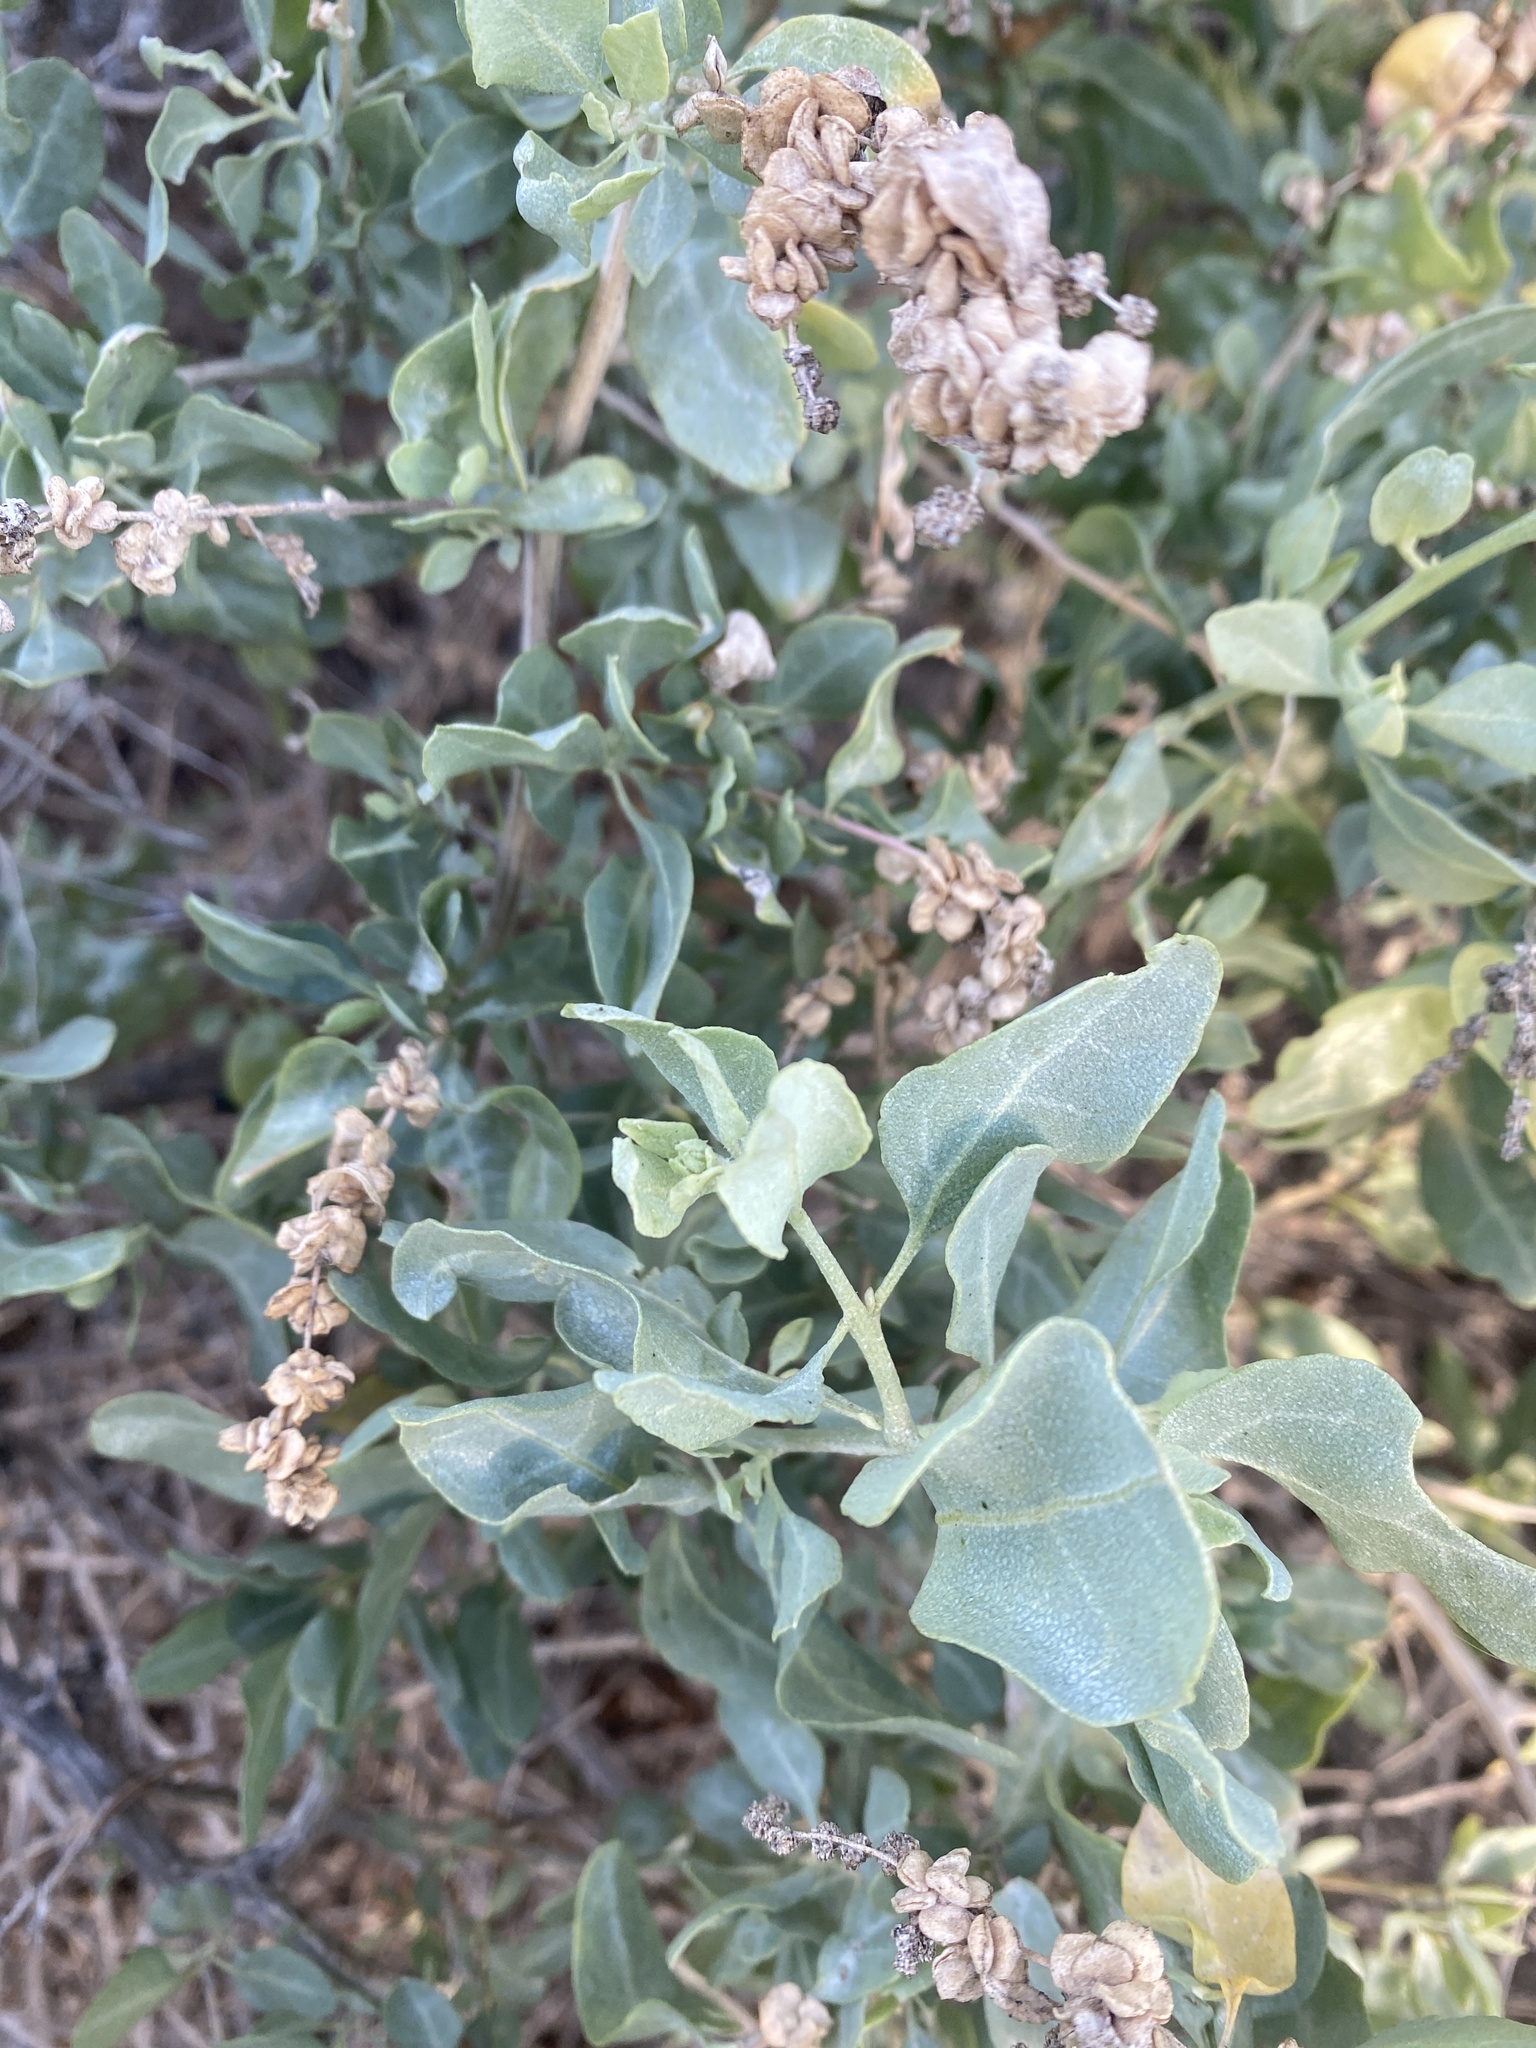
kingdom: Plantae
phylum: Tracheophyta
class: Magnoliopsida
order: Caryophyllales
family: Amaranthaceae
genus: Atriplex
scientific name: Atriplex lentiformis
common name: Big saltbush
